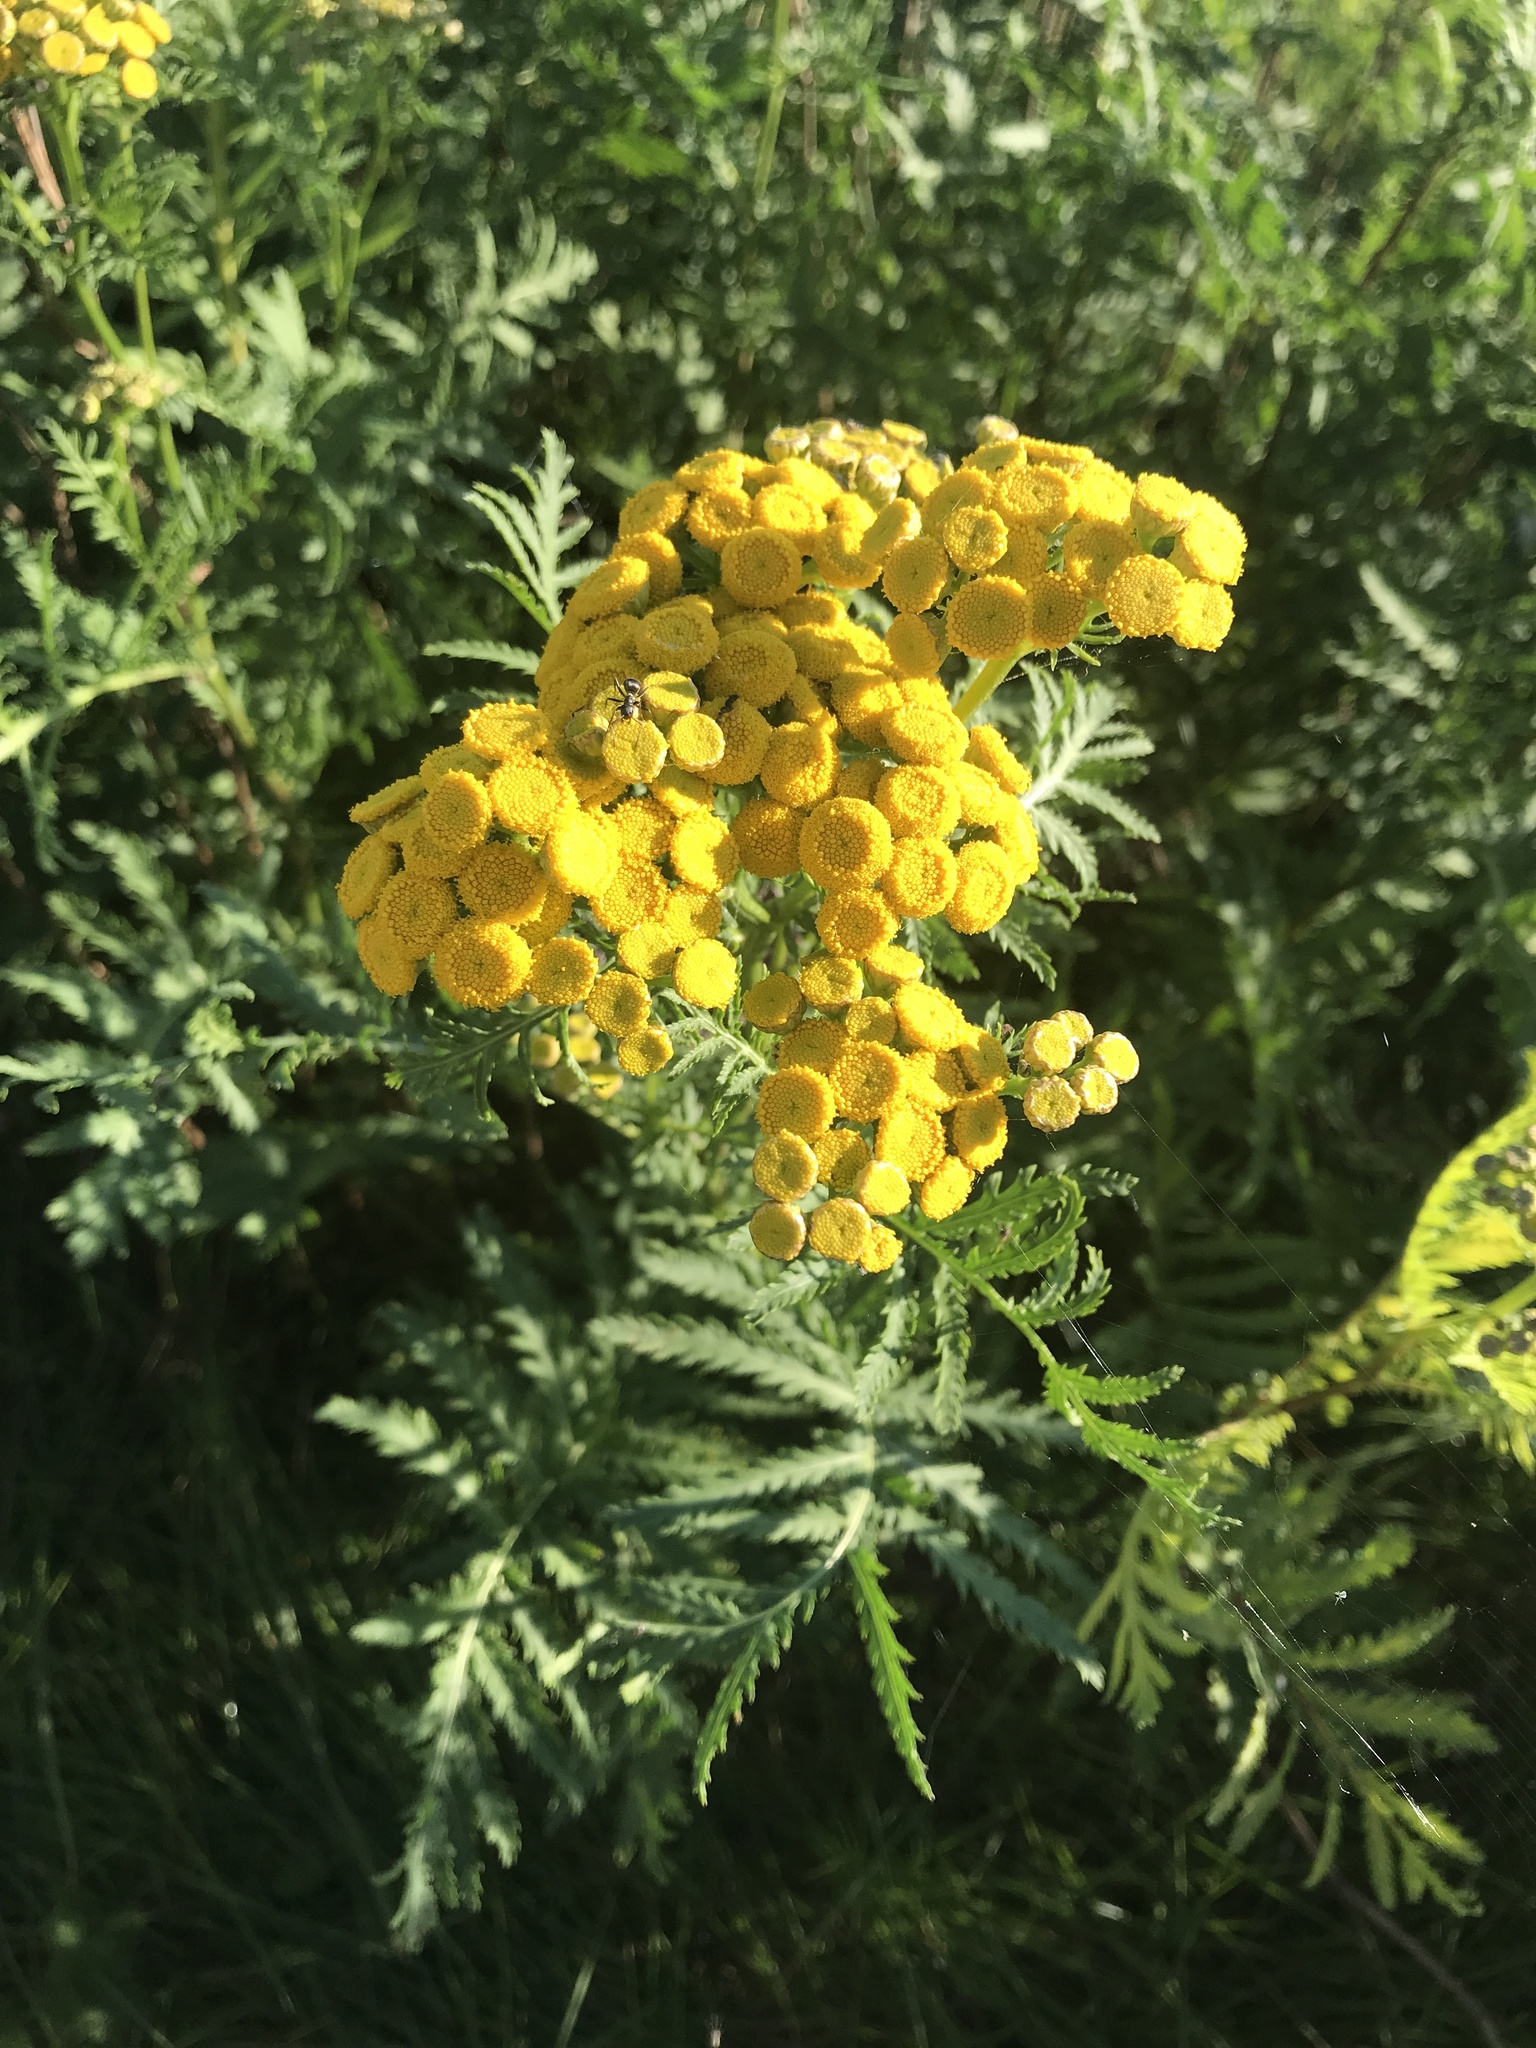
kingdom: Plantae
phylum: Tracheophyta
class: Magnoliopsida
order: Asterales
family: Asteraceae
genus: Tanacetum
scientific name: Tanacetum vulgare
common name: Common tansy
